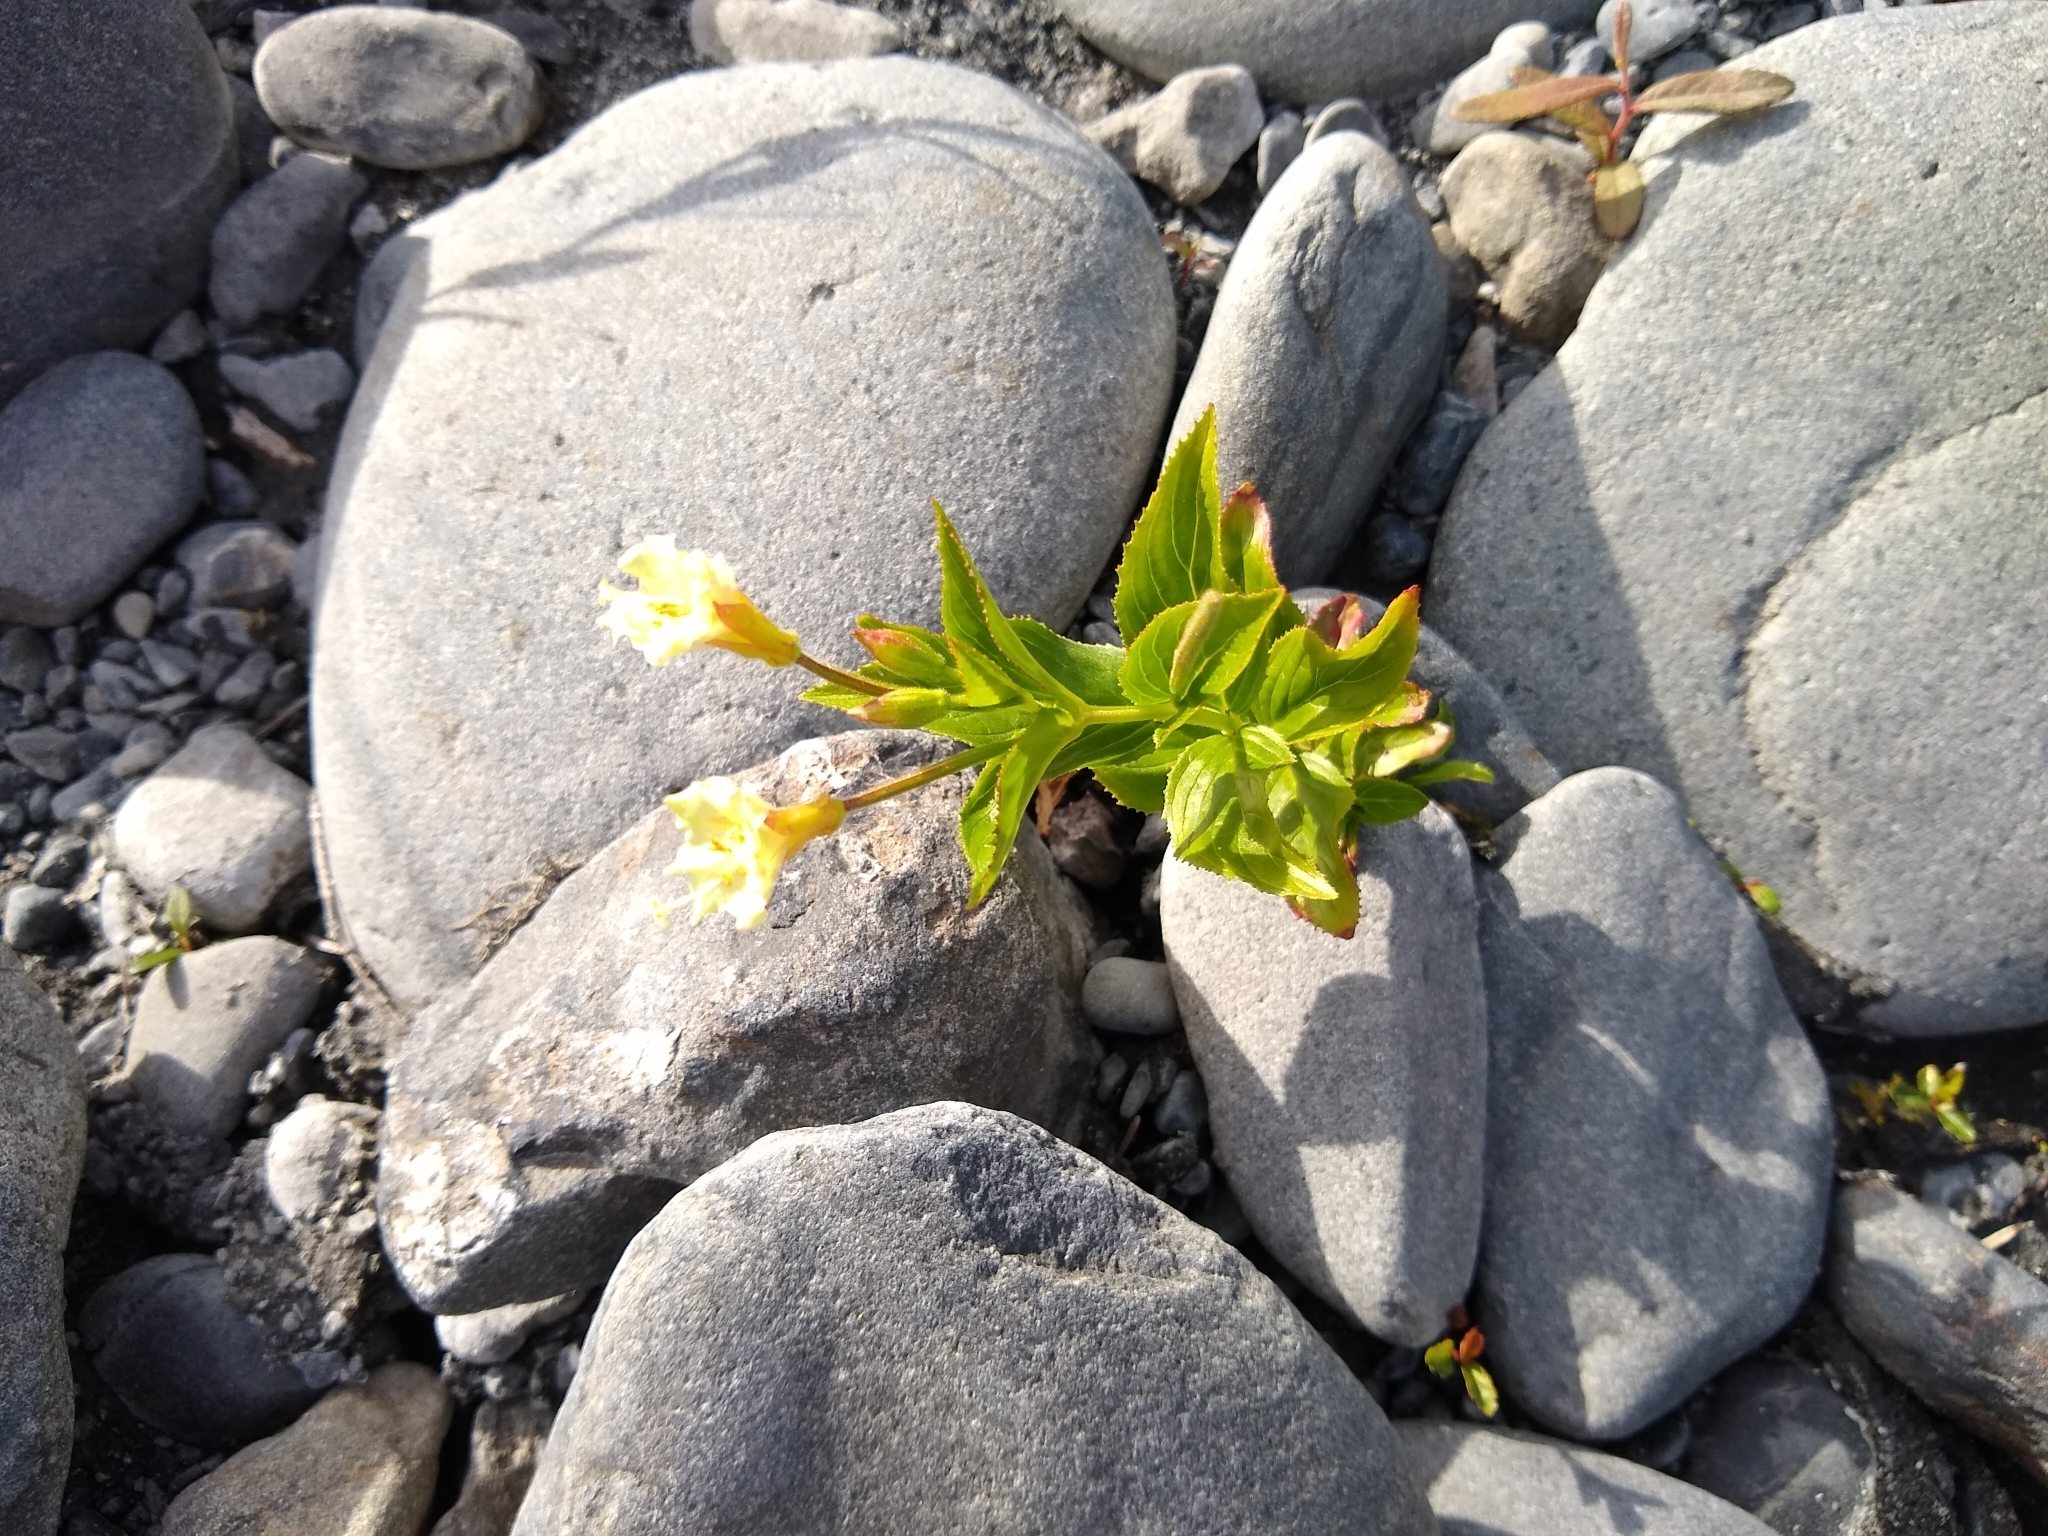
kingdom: Plantae
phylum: Tracheophyta
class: Magnoliopsida
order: Myrtales
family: Onagraceae
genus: Epilobium
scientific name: Epilobium luteum
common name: Yellow willowherb
